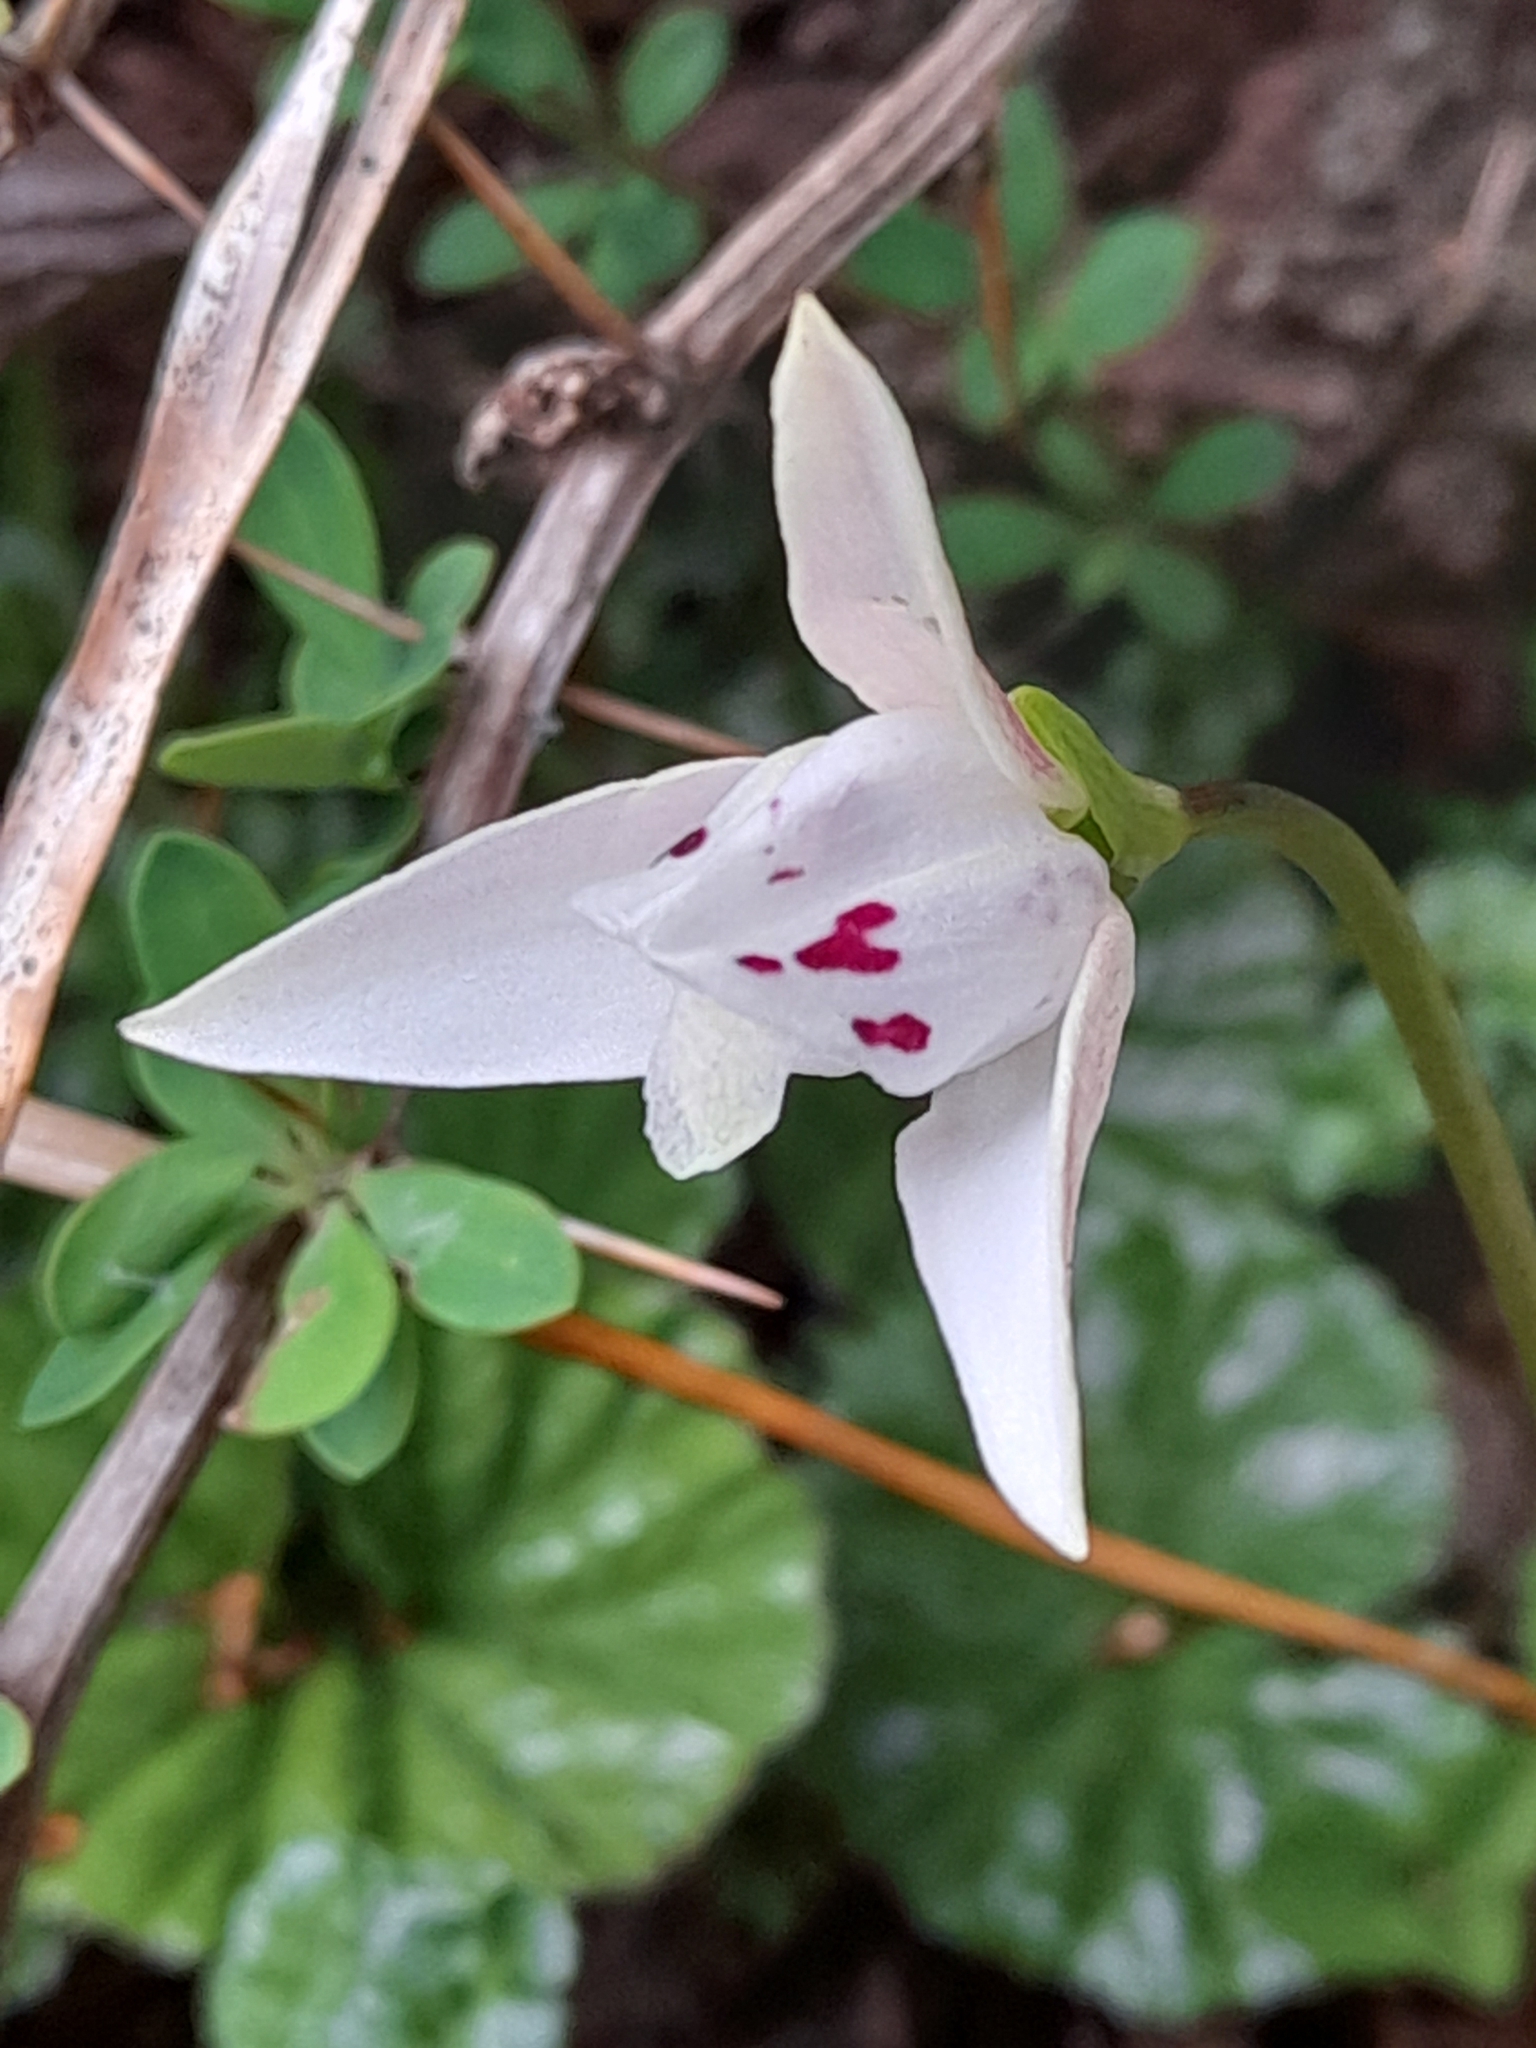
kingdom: Plantae
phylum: Tracheophyta
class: Liliopsida
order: Asparagales
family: Orchidaceae
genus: Codonorchis
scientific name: Codonorchis lessonii
